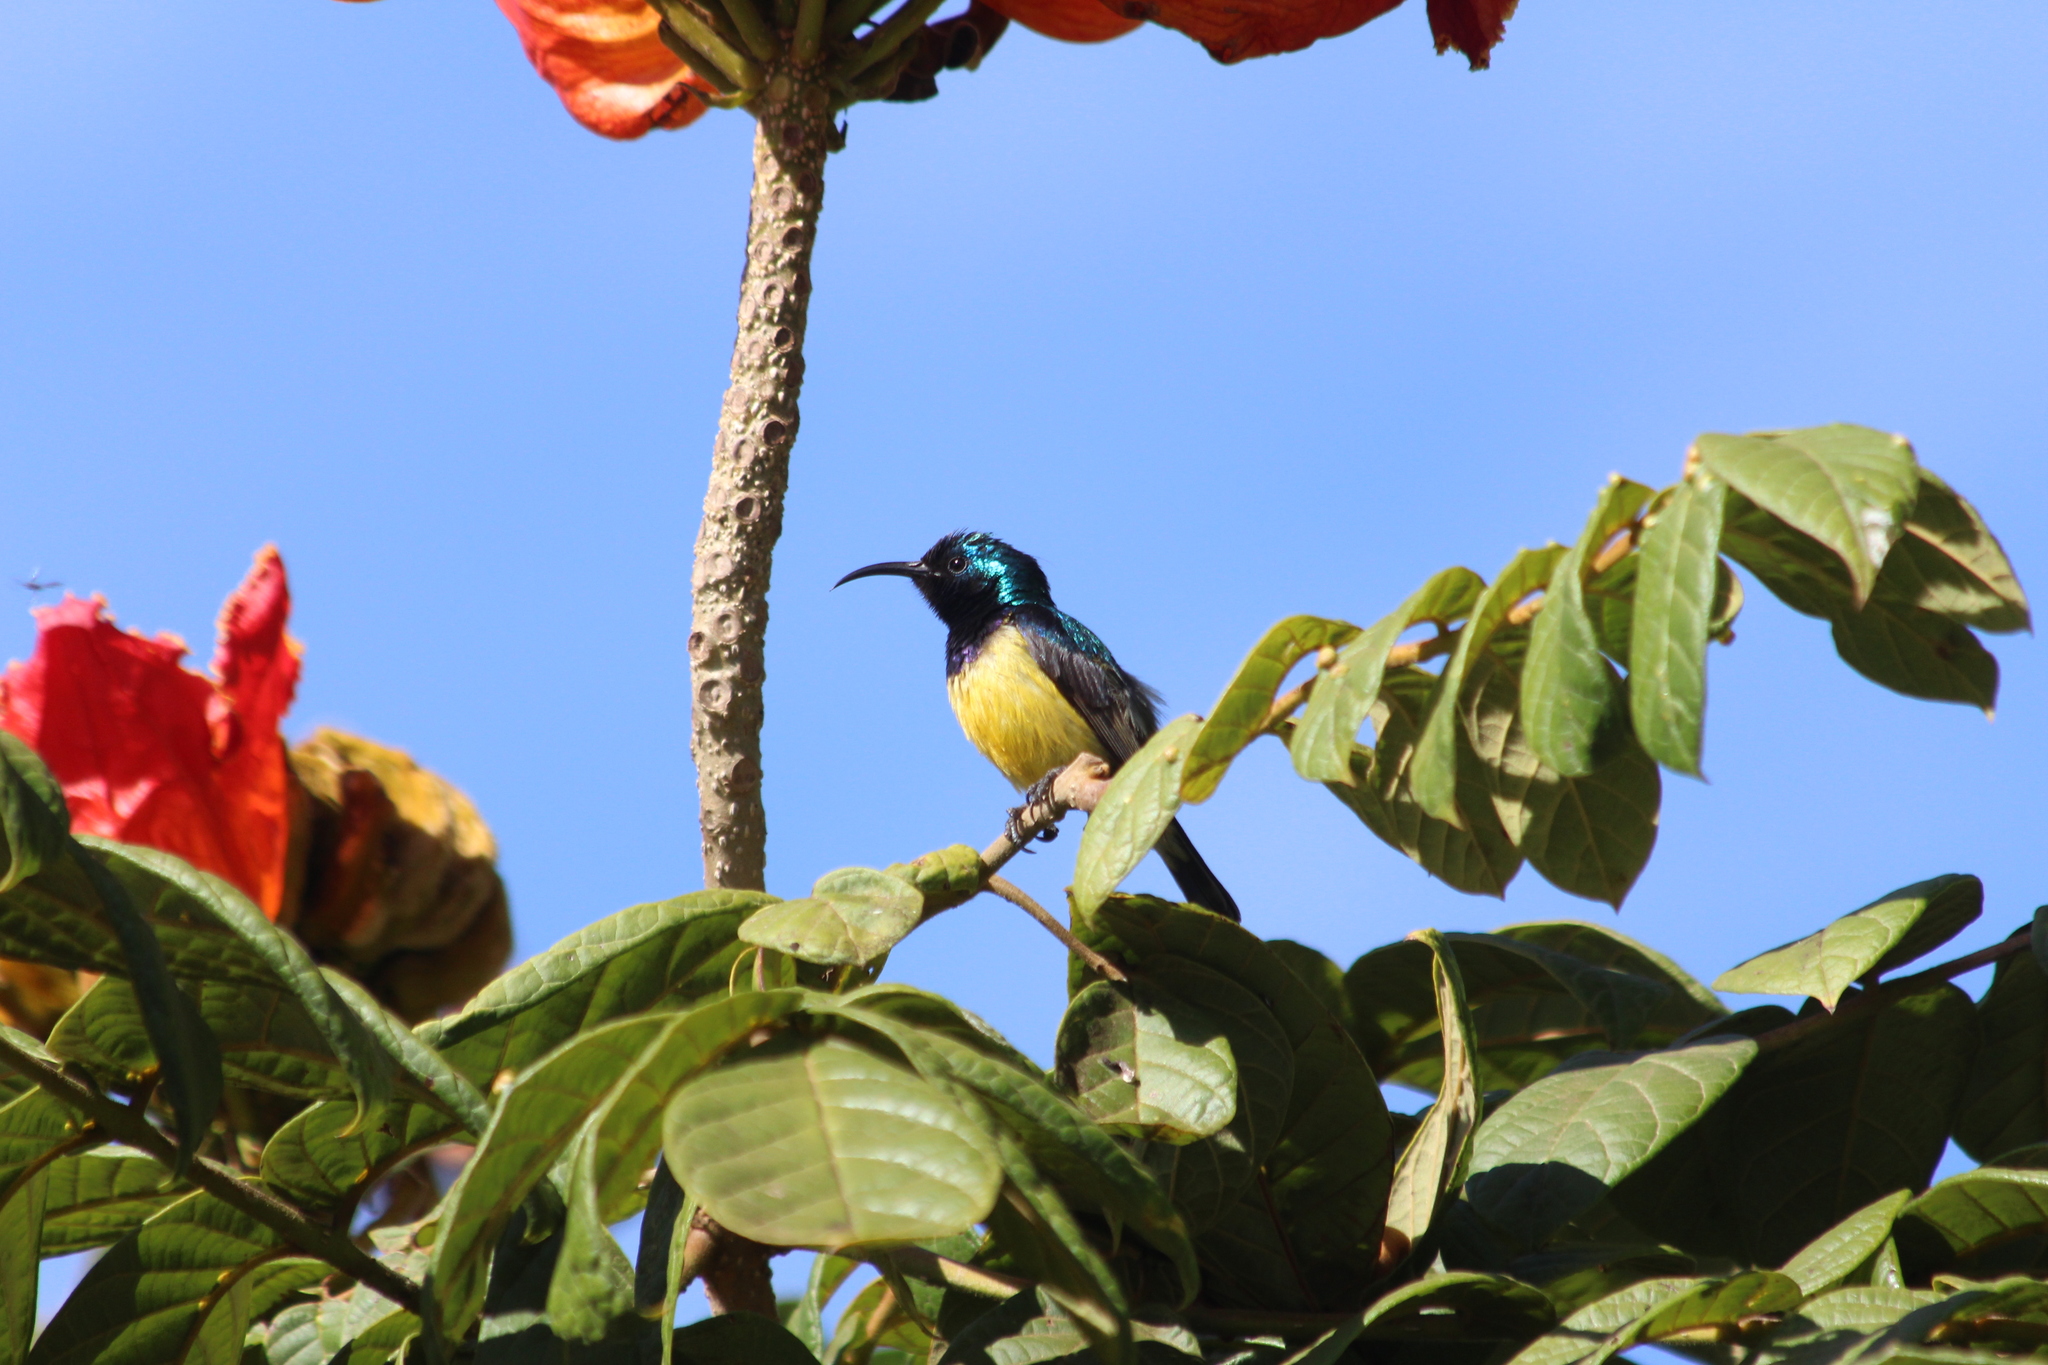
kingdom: Animalia
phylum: Chordata
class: Aves
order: Passeriformes
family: Nectariniidae
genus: Cinnyris
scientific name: Cinnyris venustus
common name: Variable sunbird
